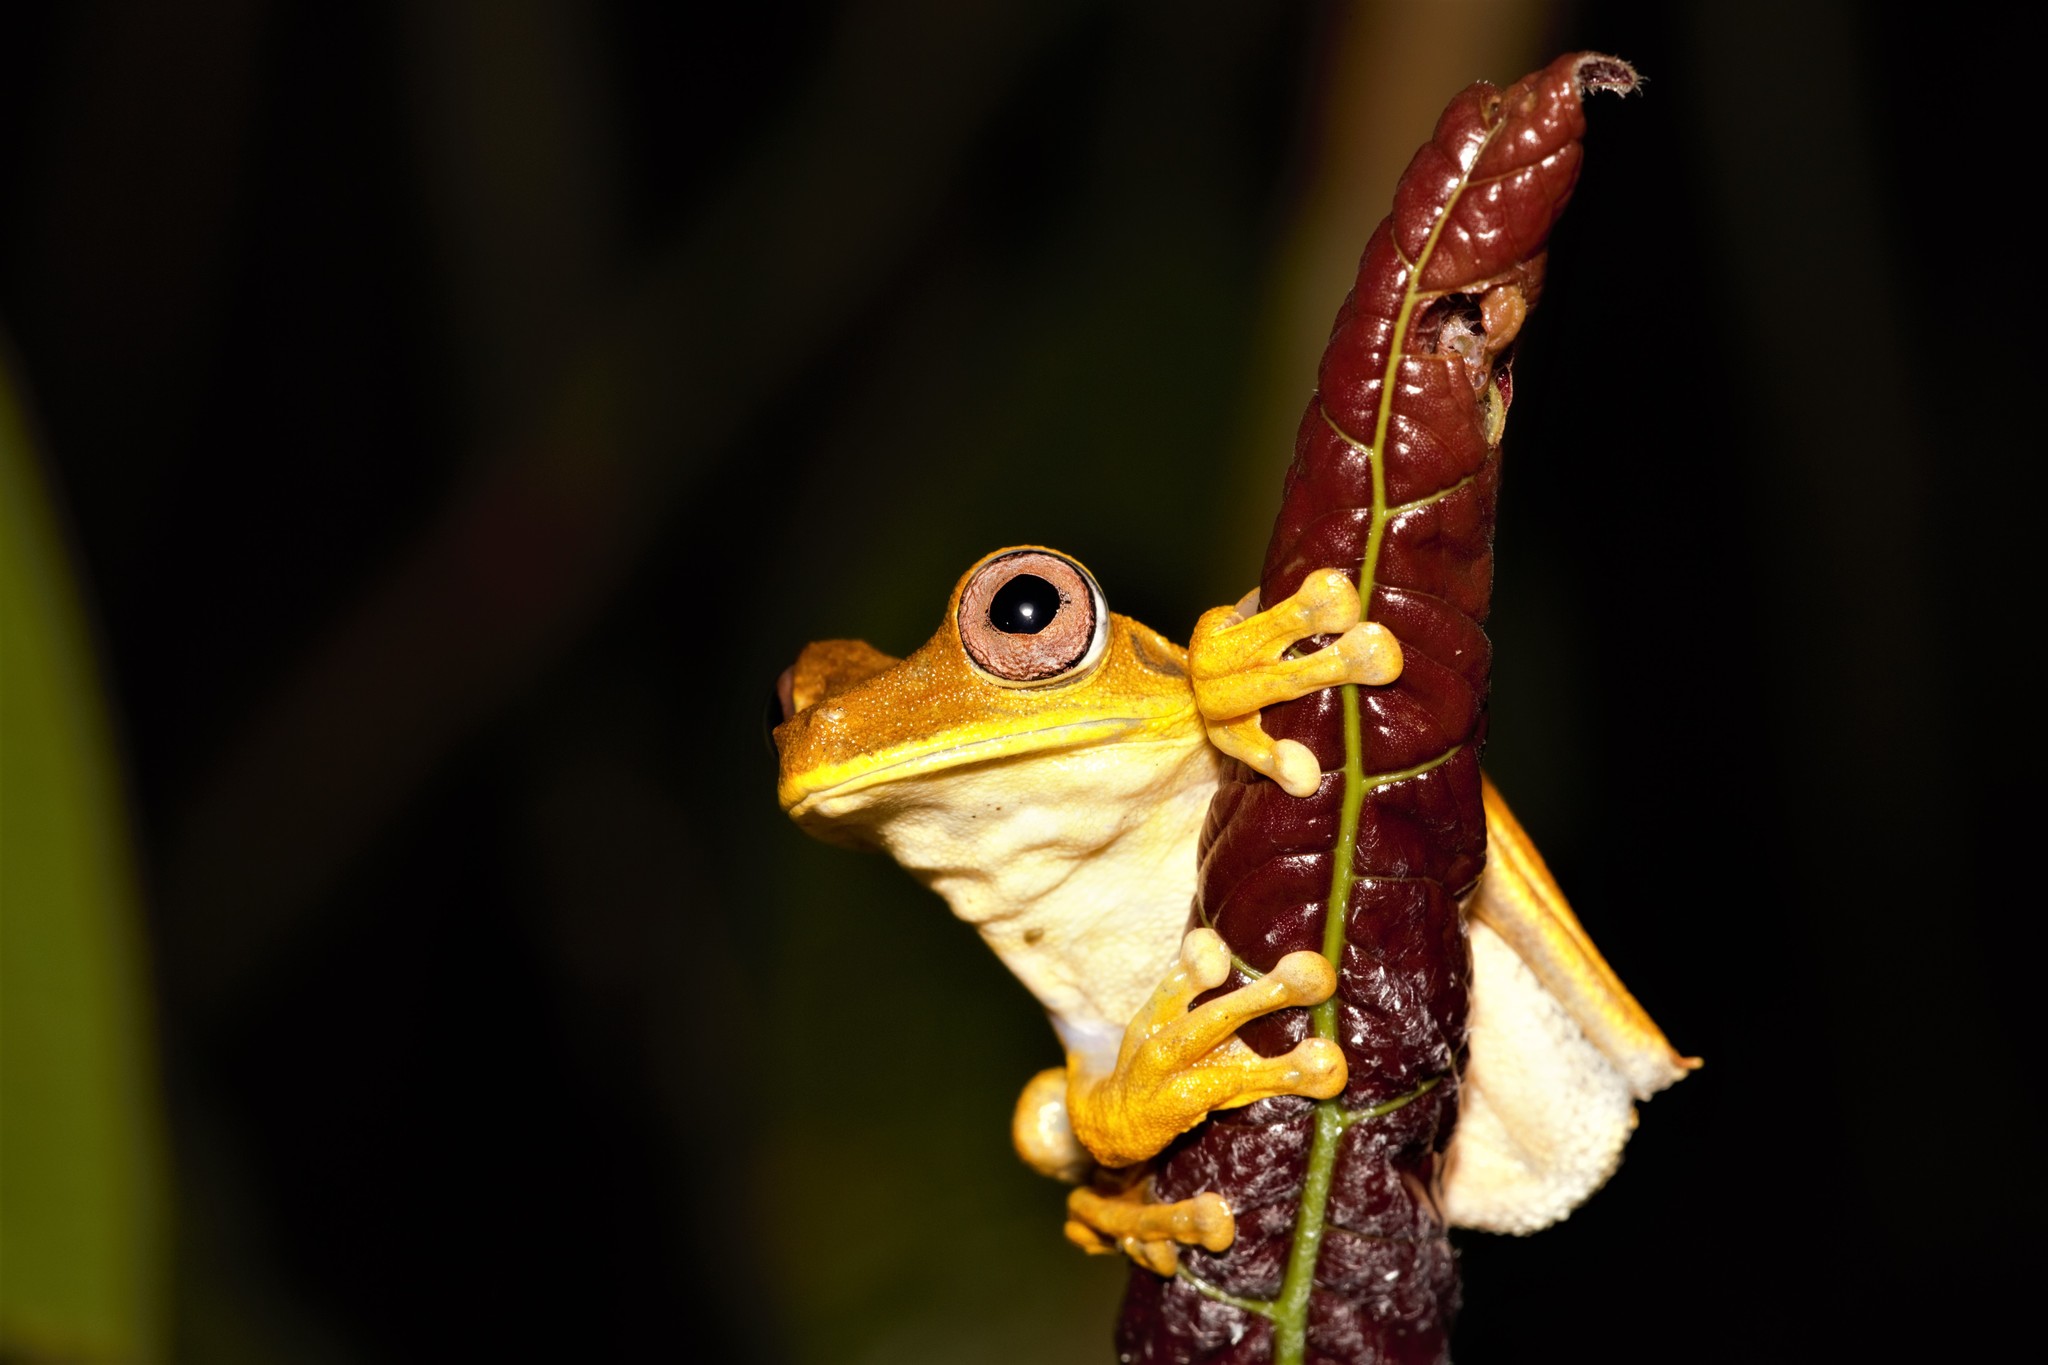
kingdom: Animalia
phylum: Chordata
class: Amphibia
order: Anura
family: Hylidae
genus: Boana
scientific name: Boana geographica
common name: Map treefrog
